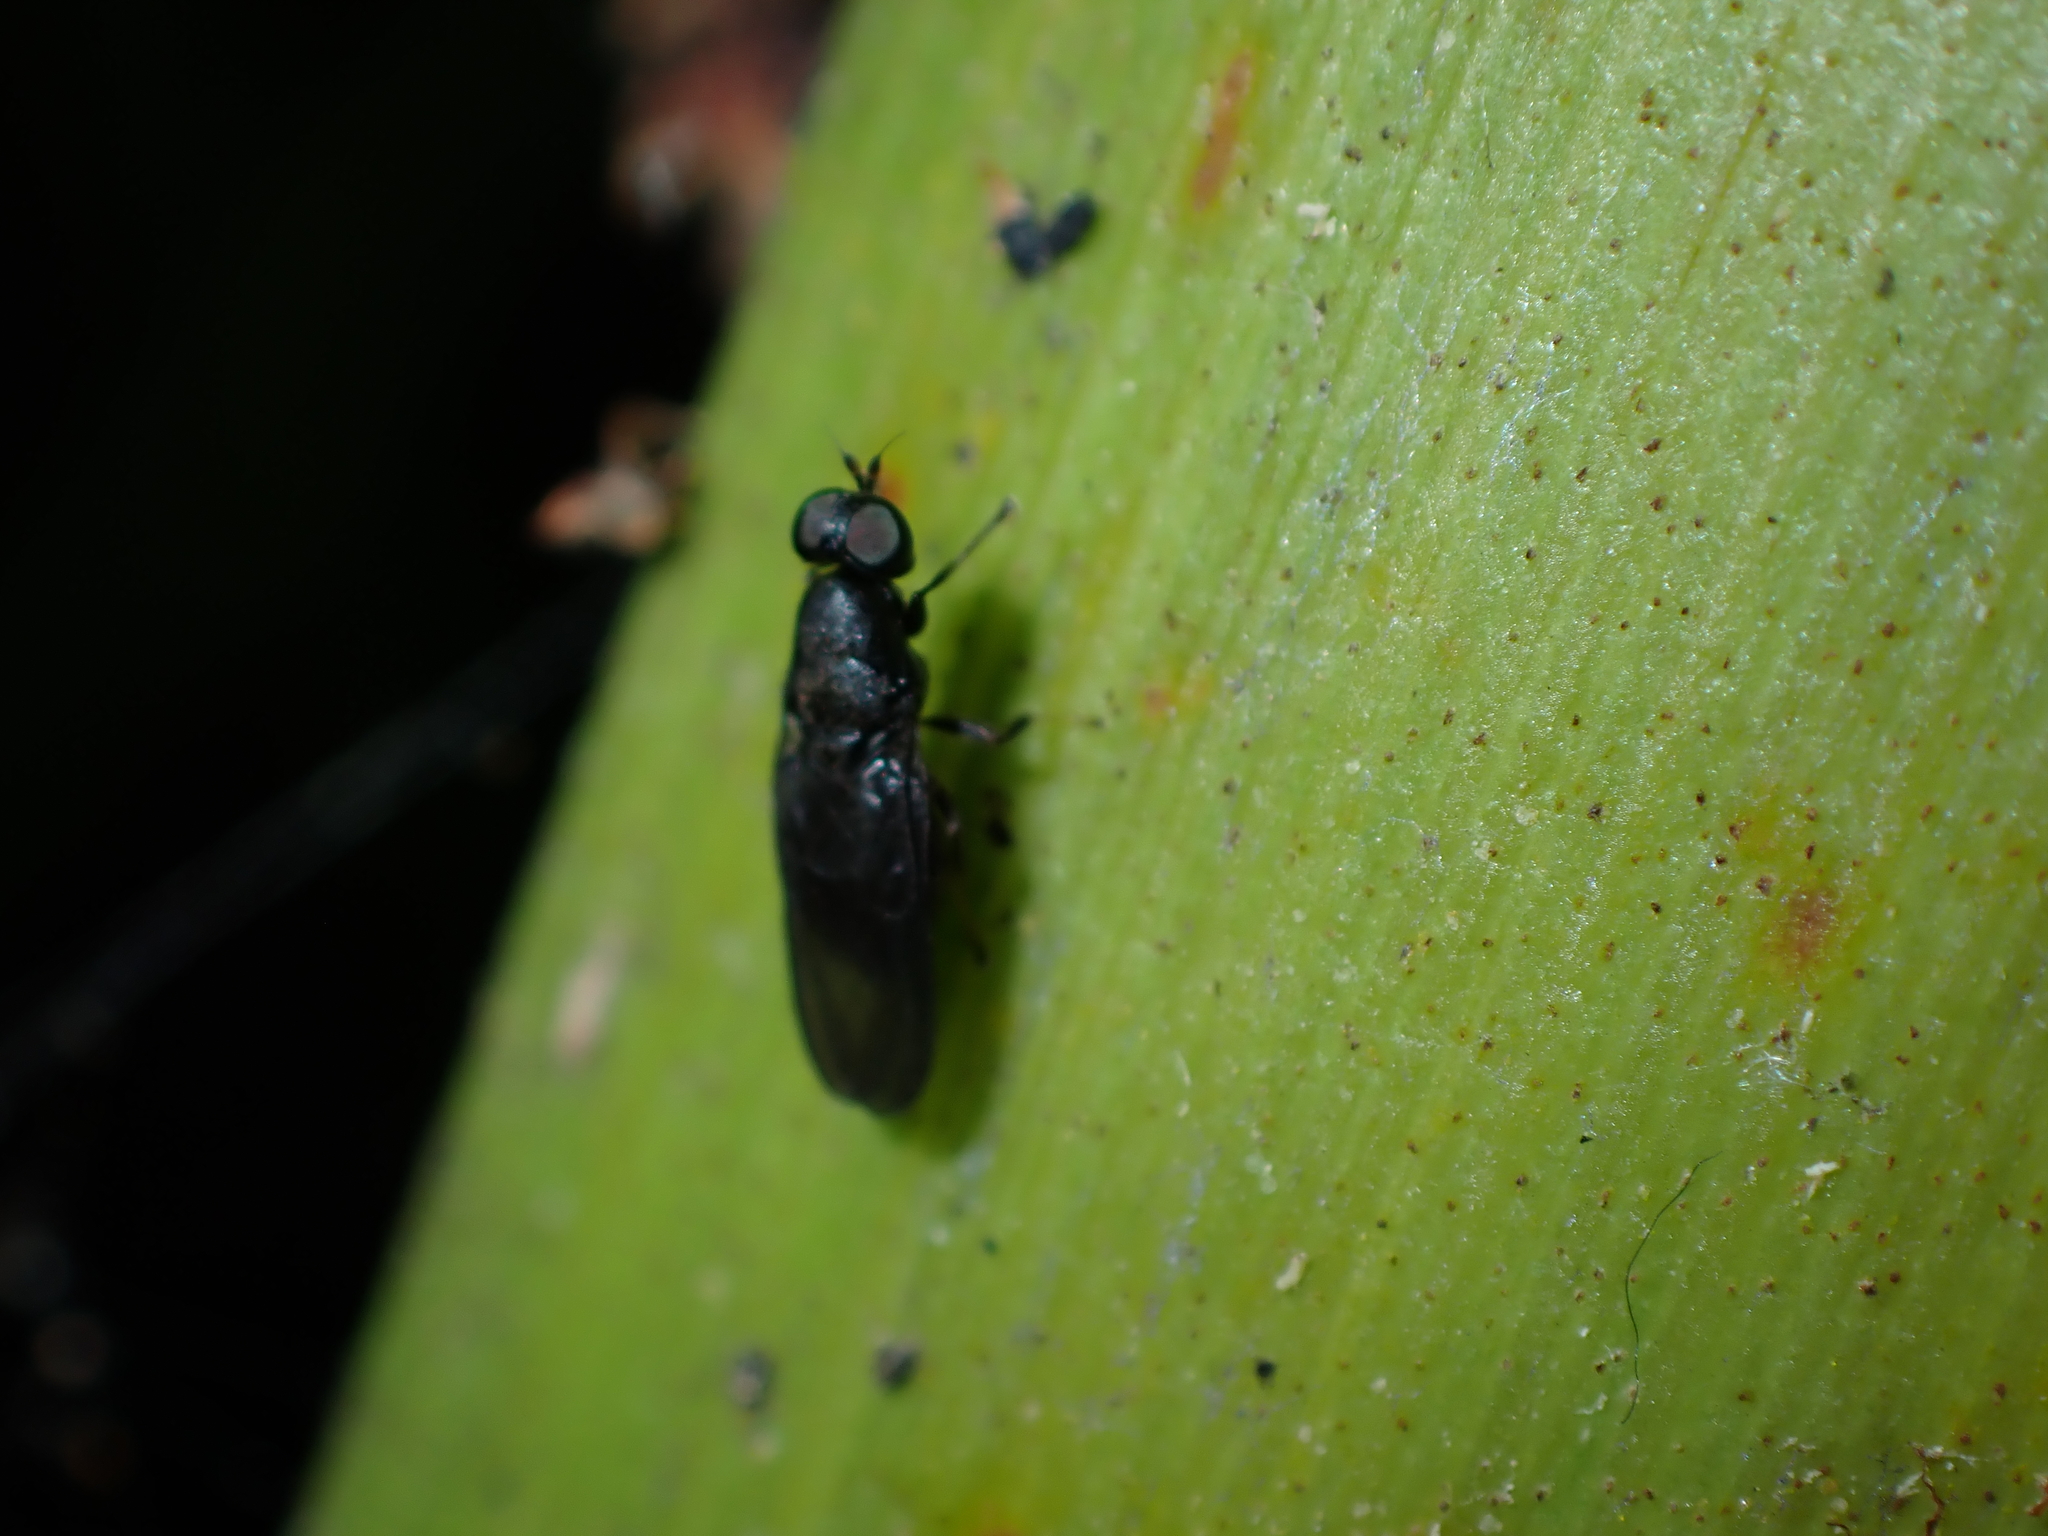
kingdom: Animalia
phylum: Arthropoda
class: Insecta
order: Diptera
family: Stratiomyidae
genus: Dysbiota
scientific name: Dysbiota parvula
